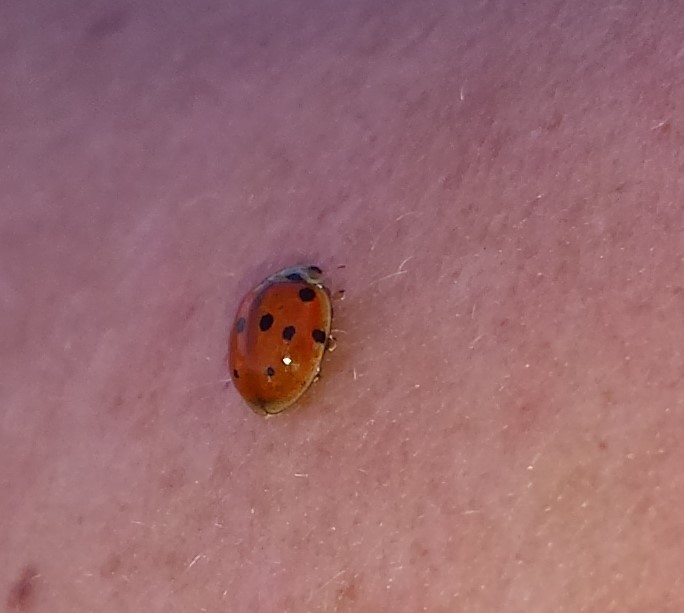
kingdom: Animalia
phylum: Arthropoda
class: Insecta
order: Coleoptera
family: Coccinellidae
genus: Adalia
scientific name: Adalia decempunctata
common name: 10-spot ladybird
